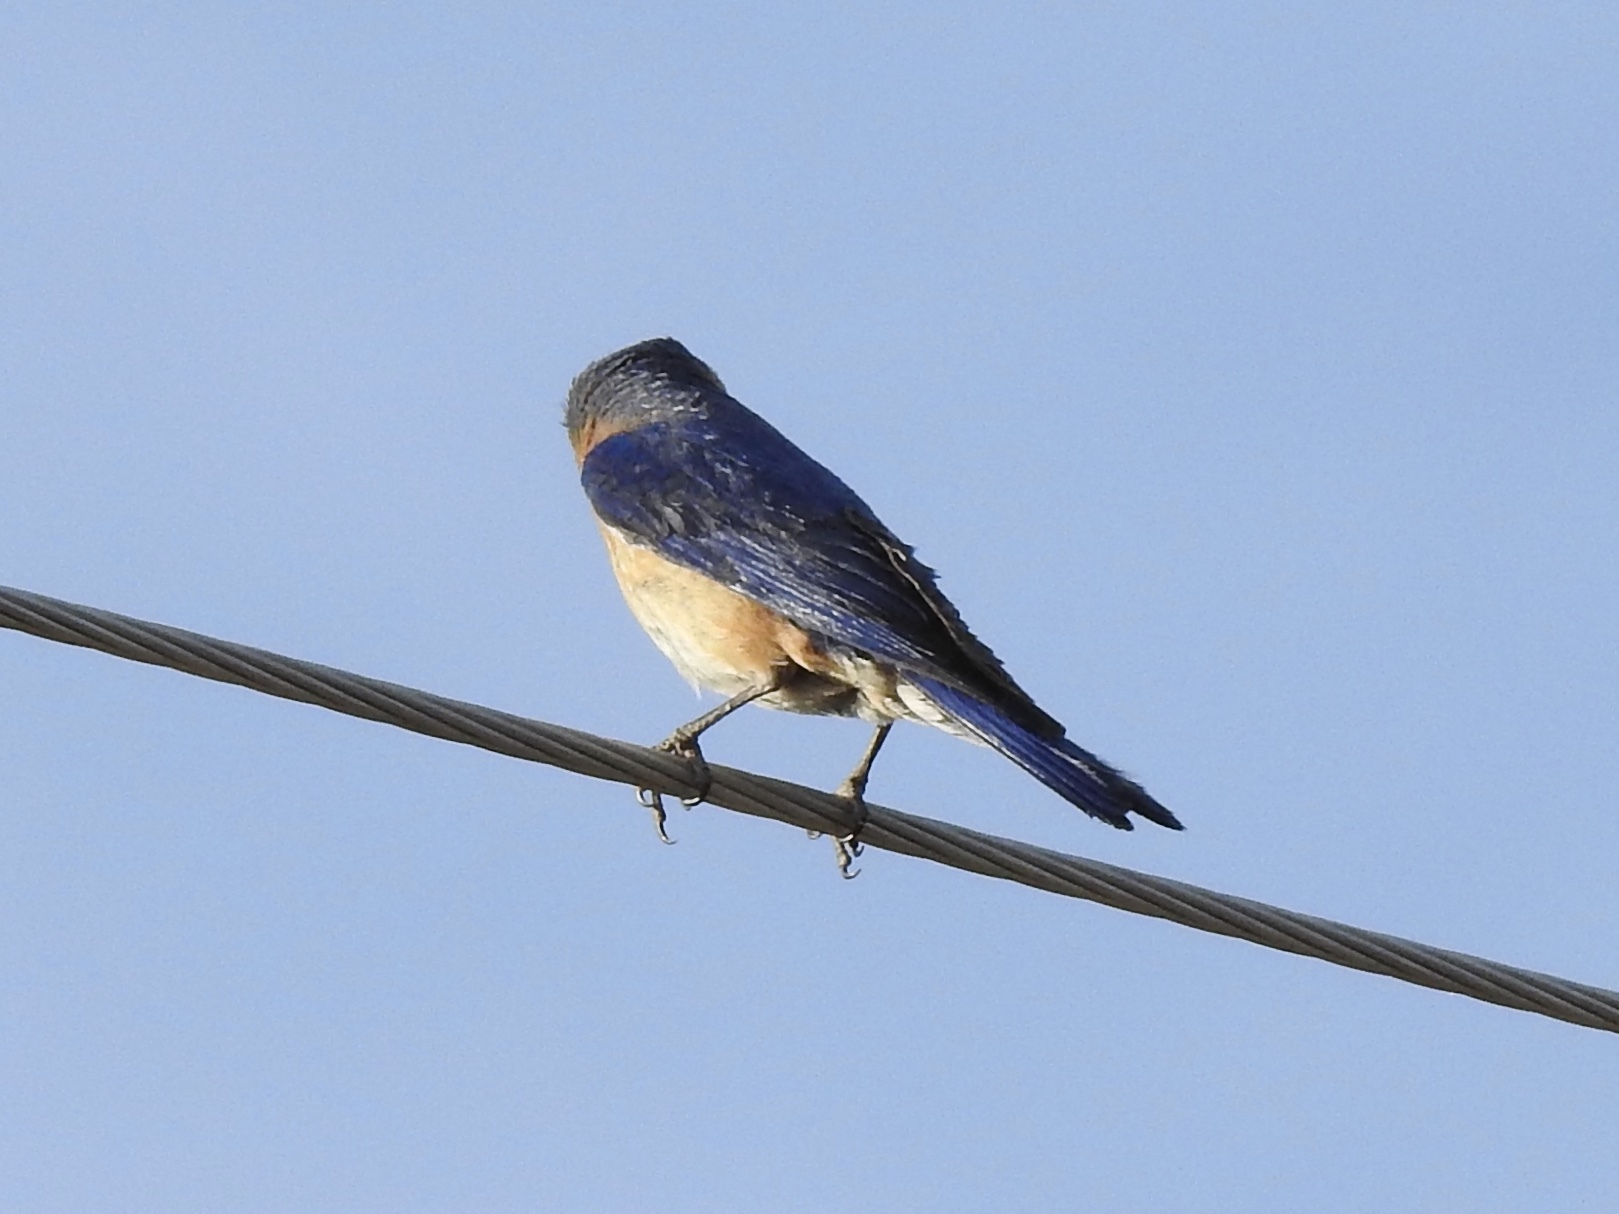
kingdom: Animalia
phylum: Chordata
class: Aves
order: Passeriformes
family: Turdidae
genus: Sialia
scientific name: Sialia sialis
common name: Eastern bluebird
